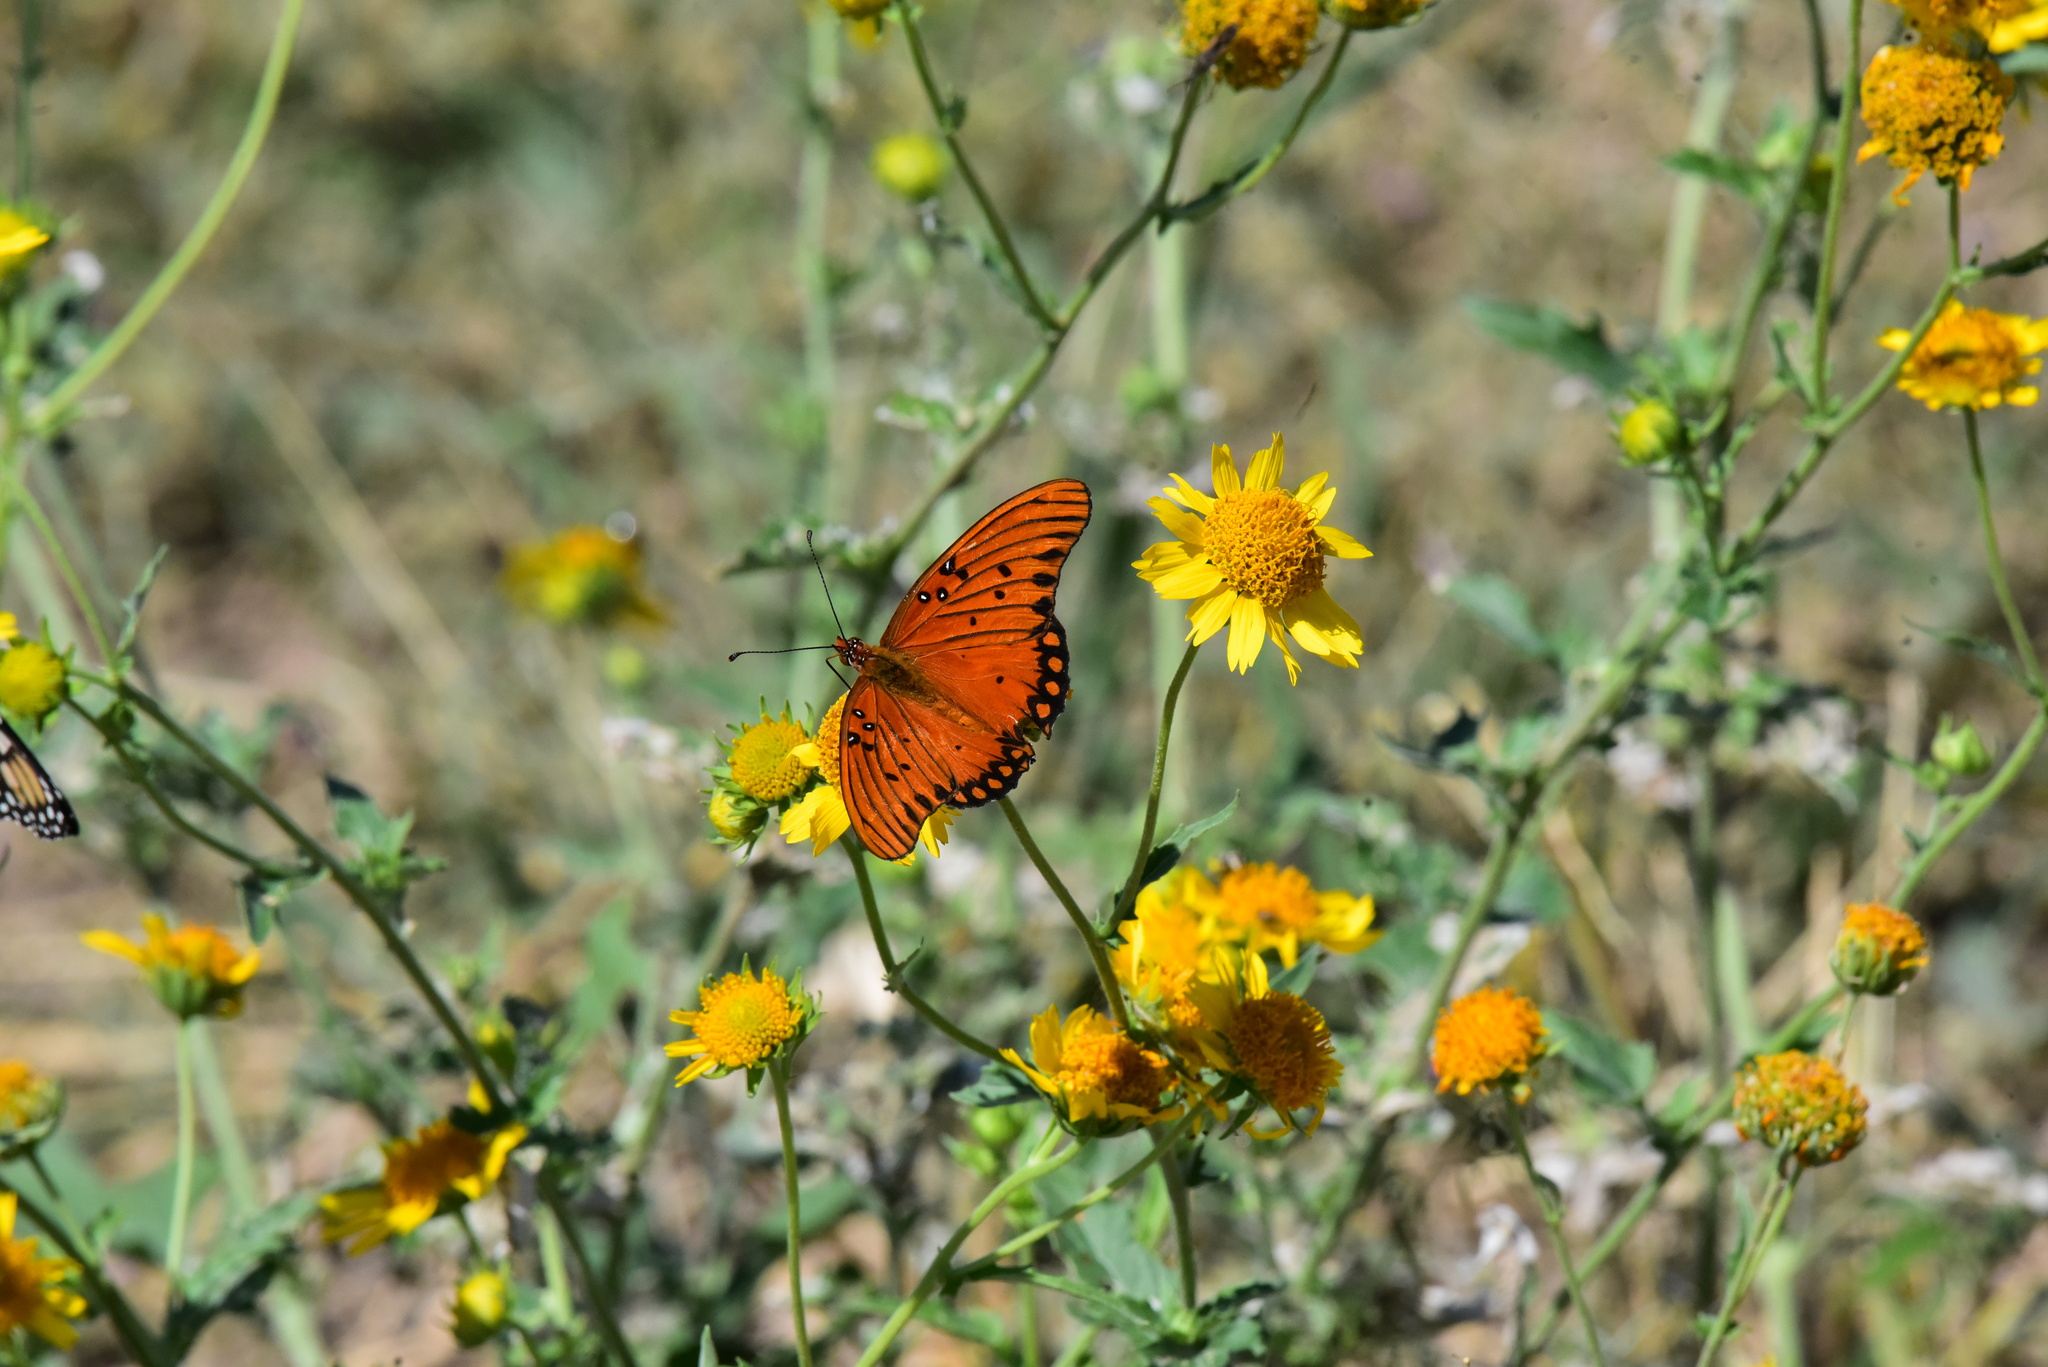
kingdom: Animalia
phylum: Arthropoda
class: Insecta
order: Lepidoptera
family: Nymphalidae
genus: Dione
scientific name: Dione vanillae
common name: Gulf fritillary
